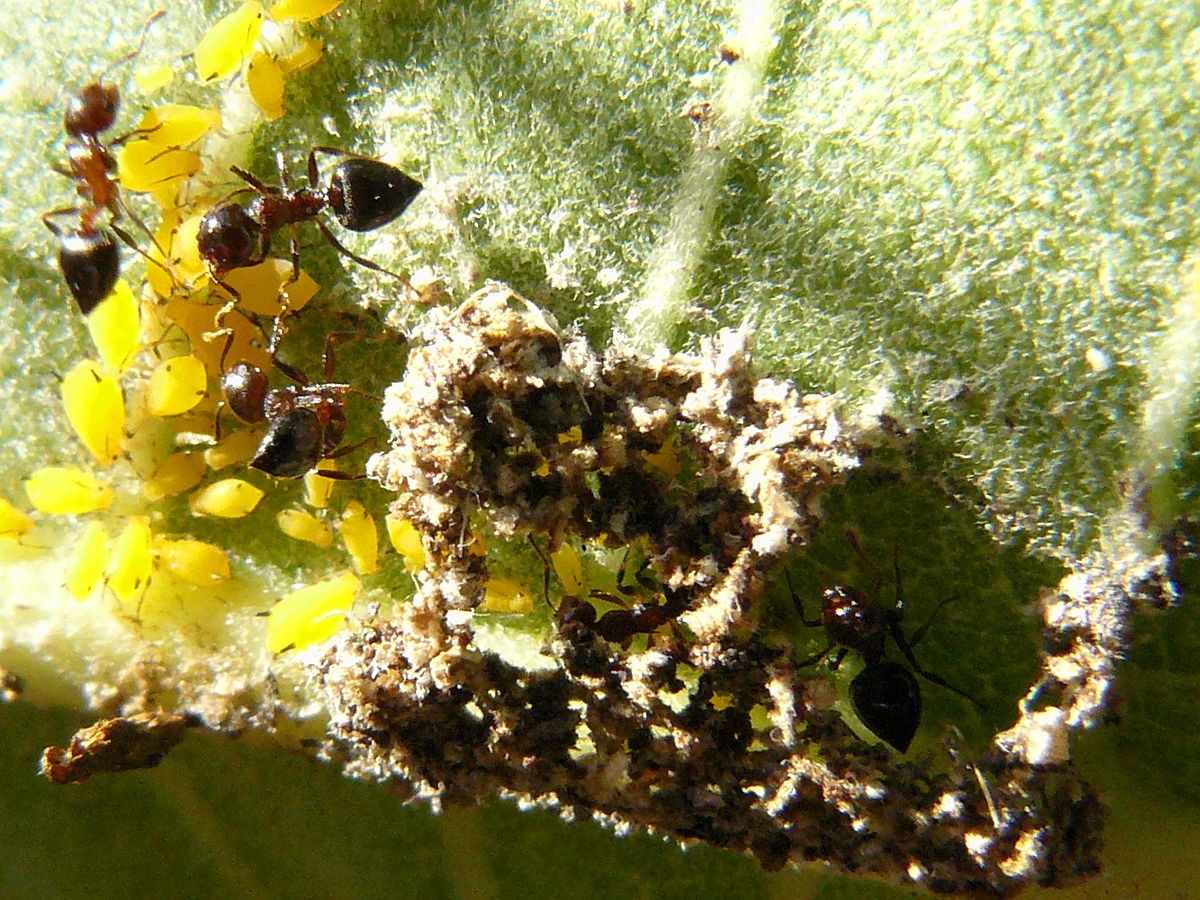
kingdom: Animalia
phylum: Arthropoda
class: Insecta
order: Hymenoptera
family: Formicidae
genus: Crematogaster
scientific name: Crematogaster lineolata
